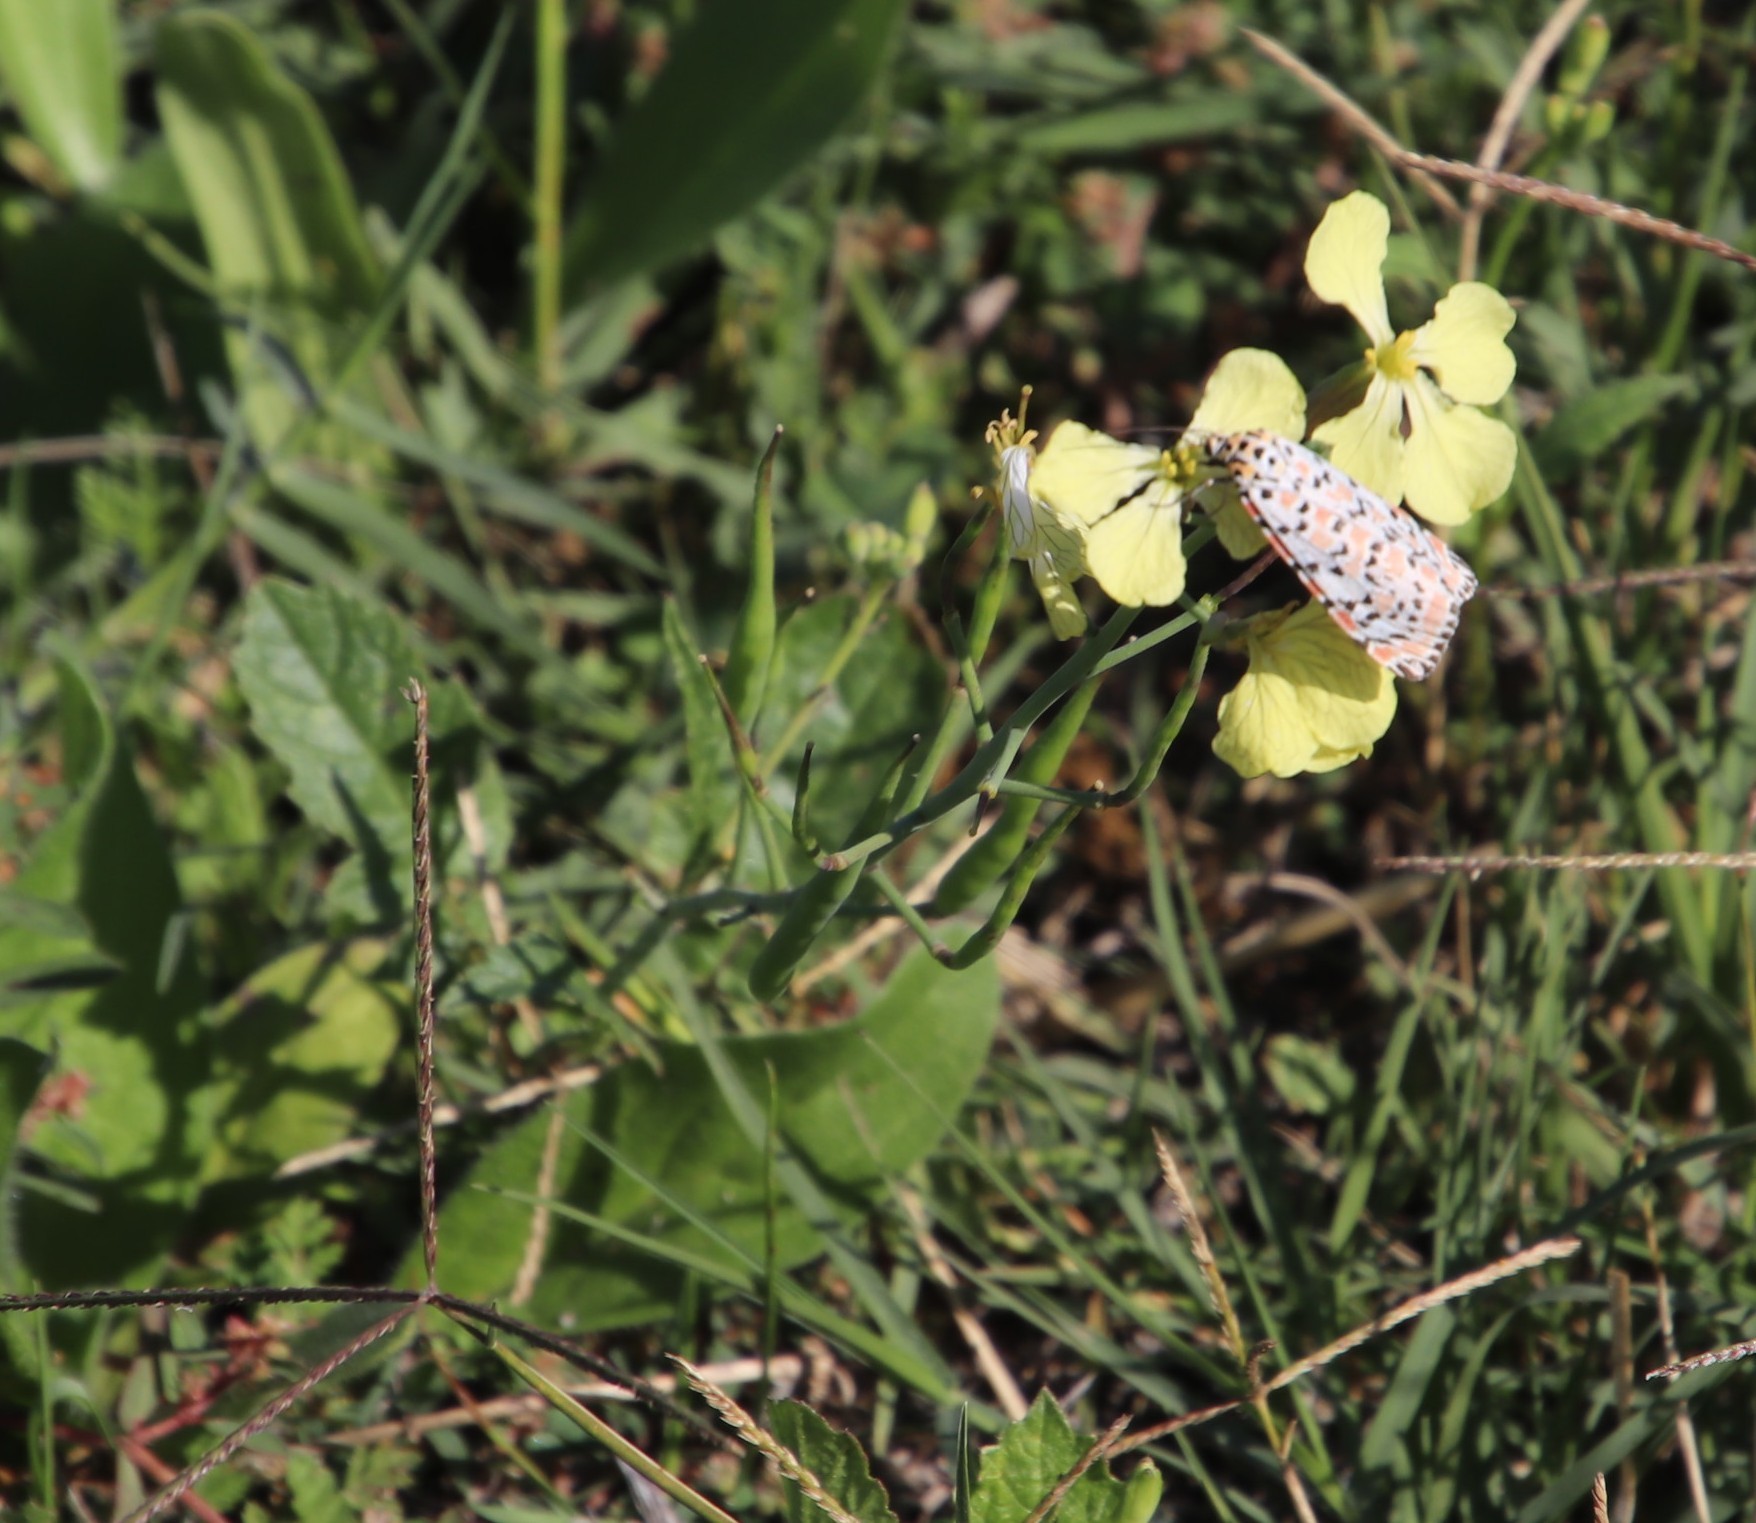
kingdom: Animalia
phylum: Arthropoda
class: Insecta
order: Lepidoptera
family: Erebidae
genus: Utetheisa
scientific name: Utetheisa pulchella
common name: Crimson speckled
